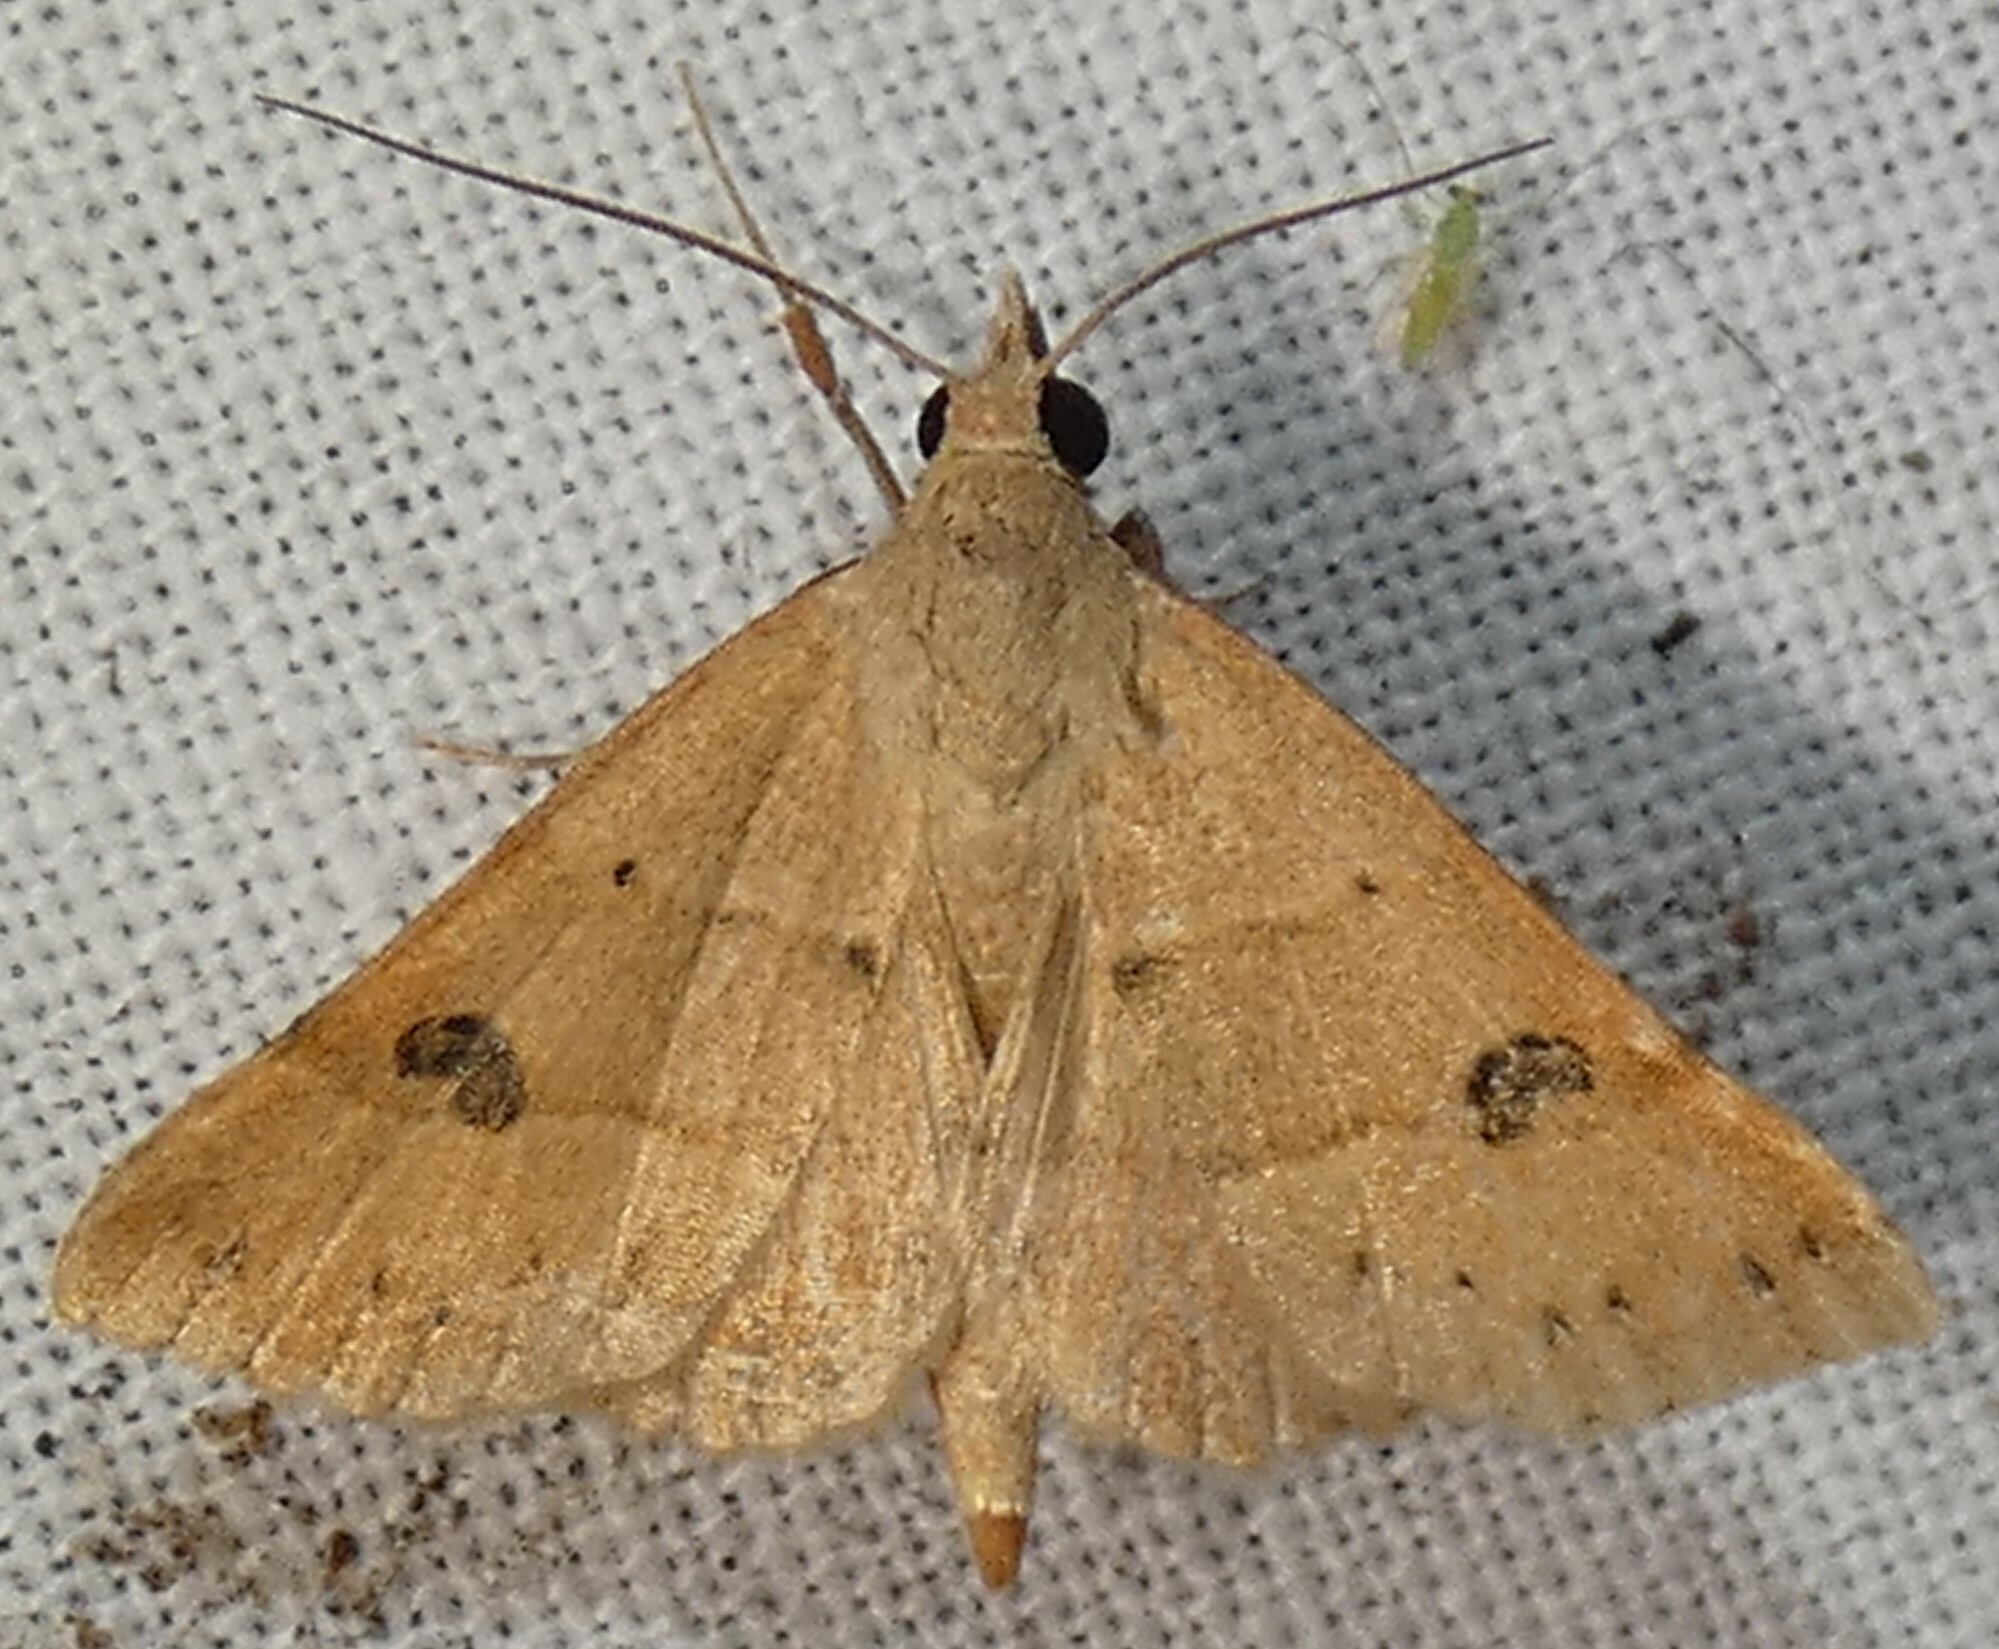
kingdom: Animalia
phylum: Arthropoda
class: Insecta
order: Lepidoptera
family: Erebidae
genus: Hemeroplanis
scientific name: Hemeroplanis habitalis
